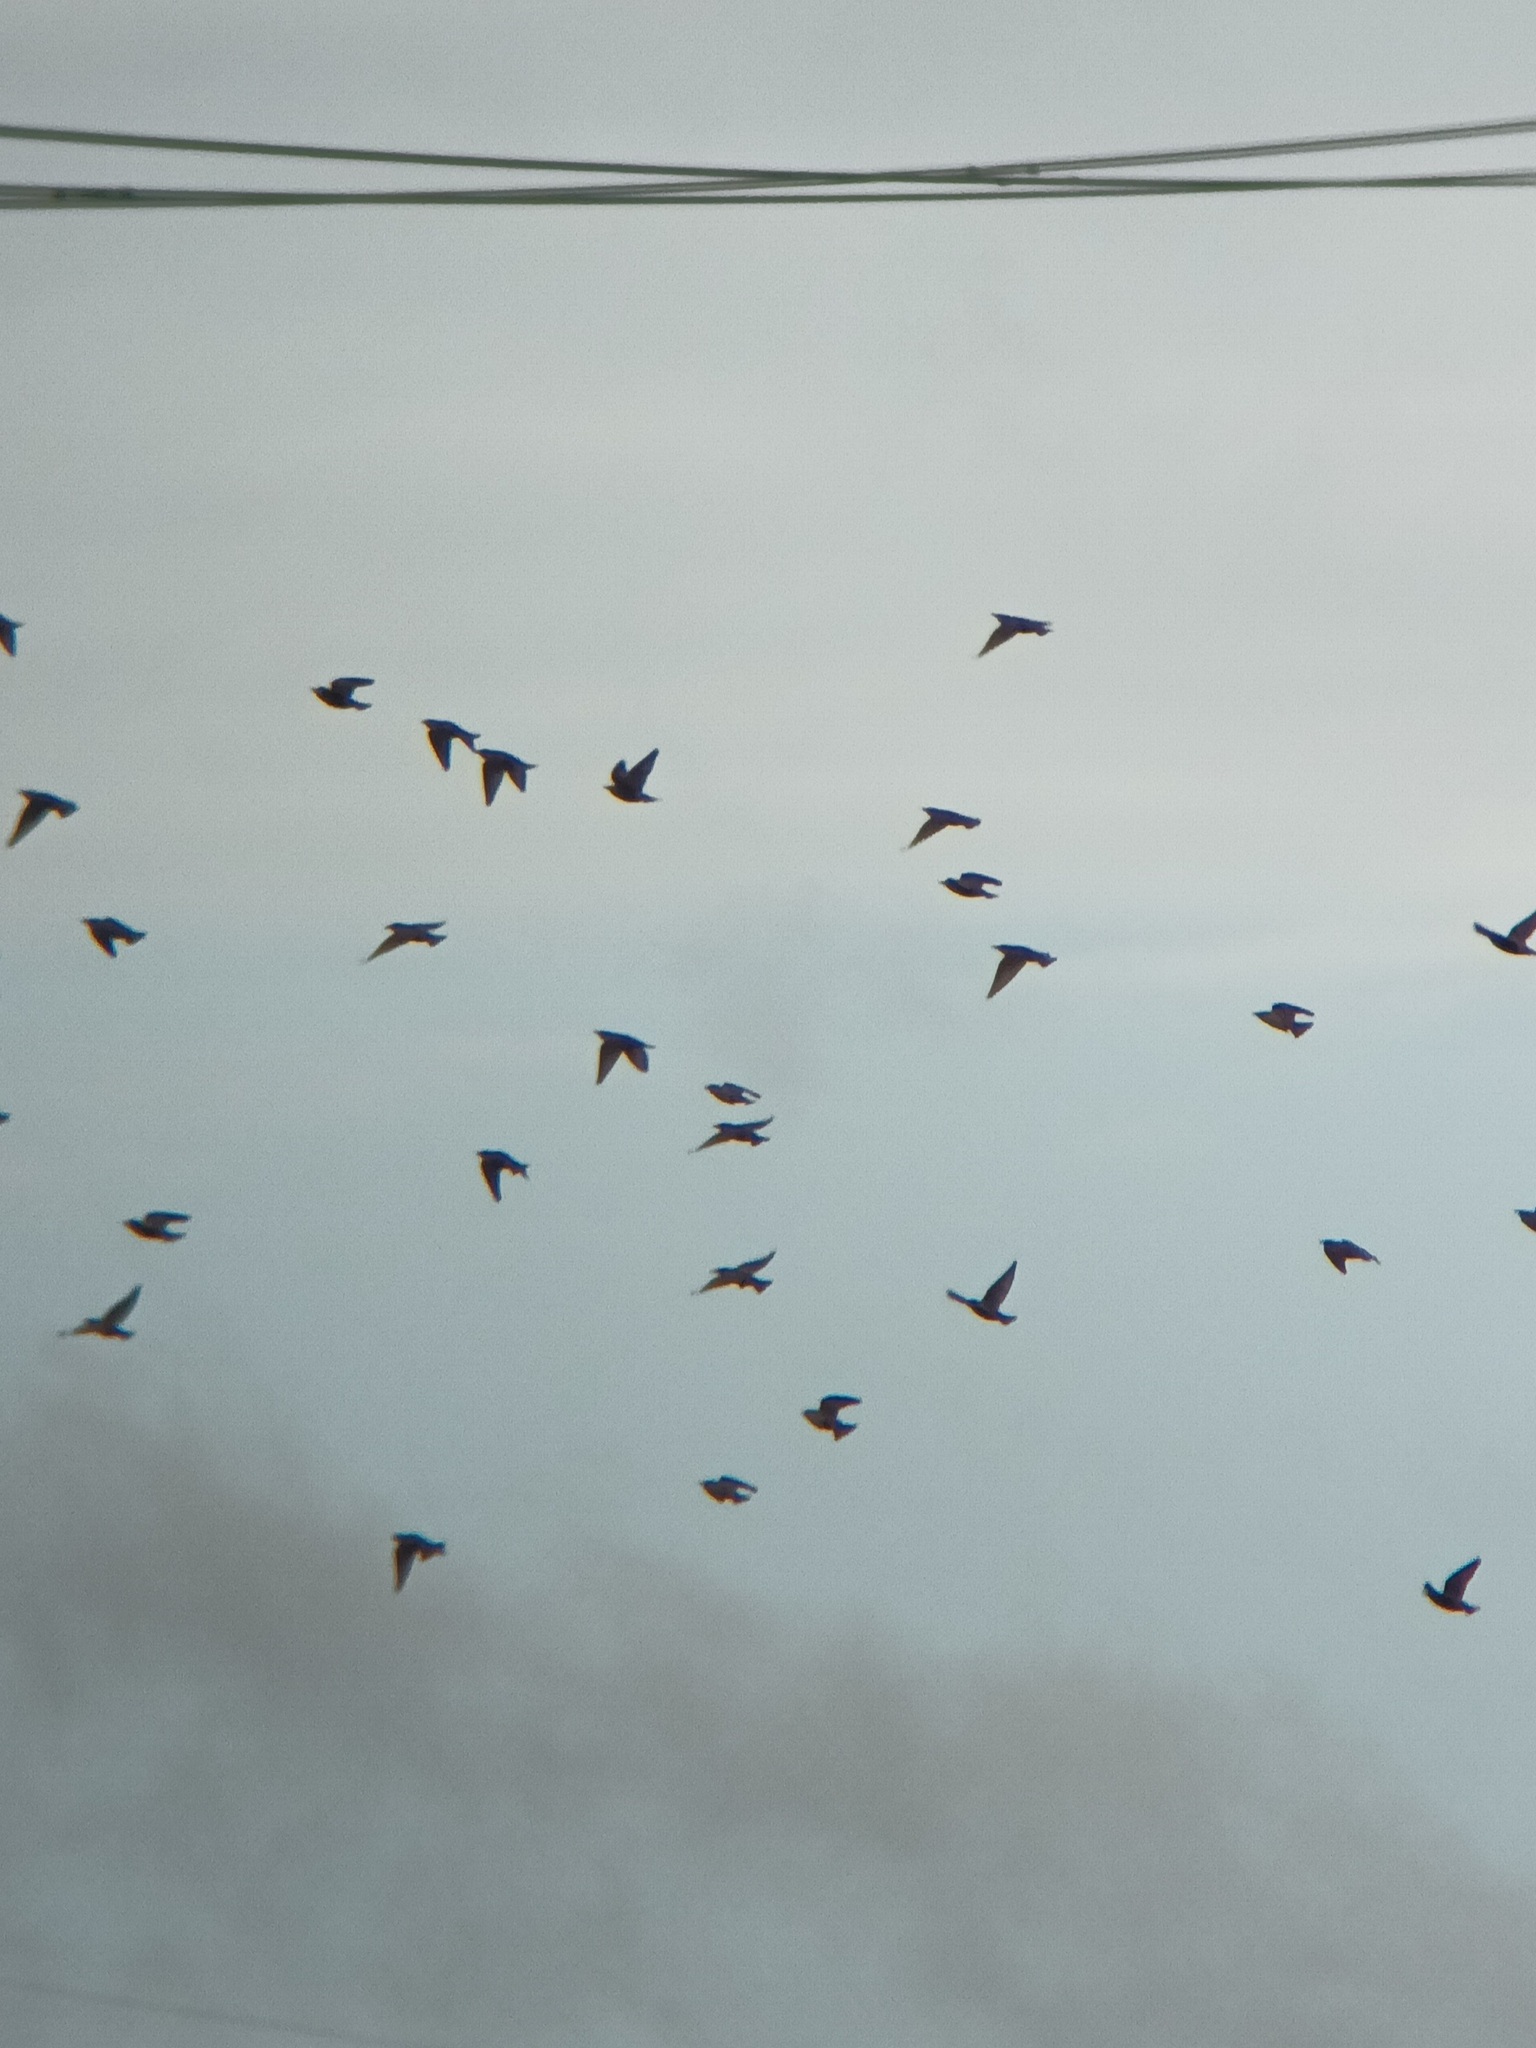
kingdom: Animalia
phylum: Chordata
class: Aves
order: Passeriformes
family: Sturnidae
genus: Sturnus
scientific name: Sturnus vulgaris
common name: Common starling
